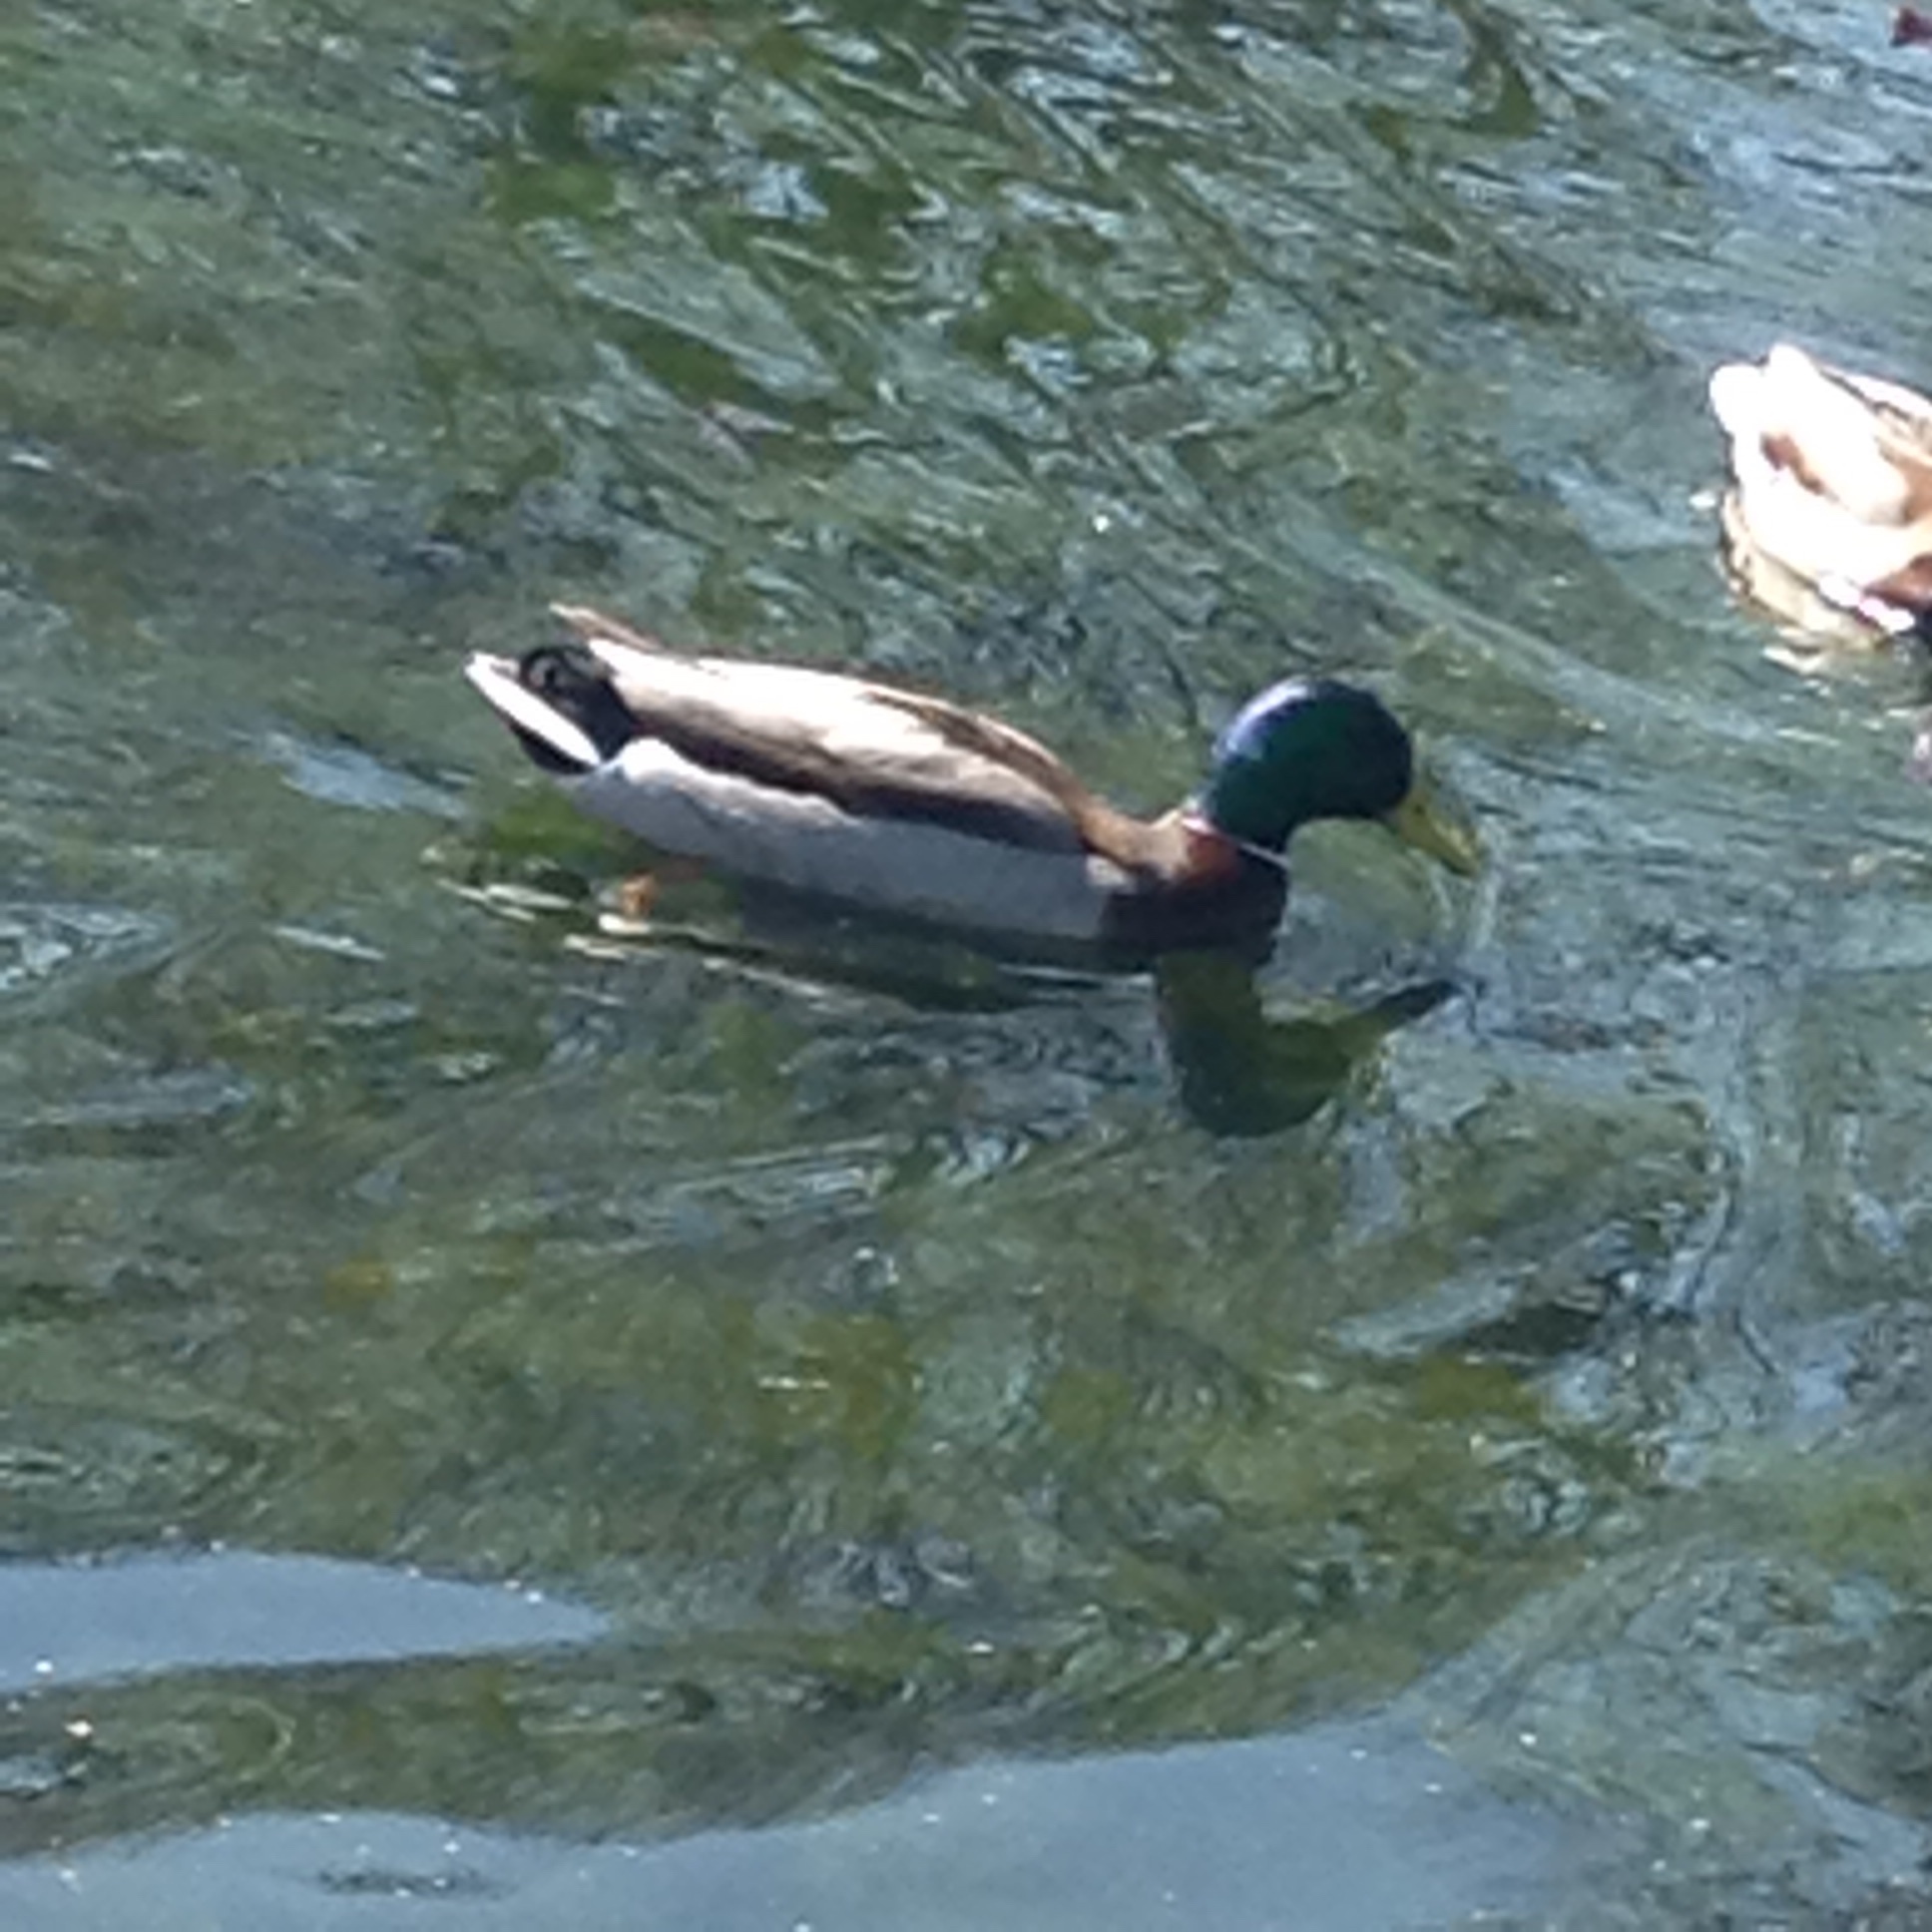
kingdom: Animalia
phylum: Chordata
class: Aves
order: Anseriformes
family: Anatidae
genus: Anas
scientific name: Anas platyrhynchos
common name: Mallard
